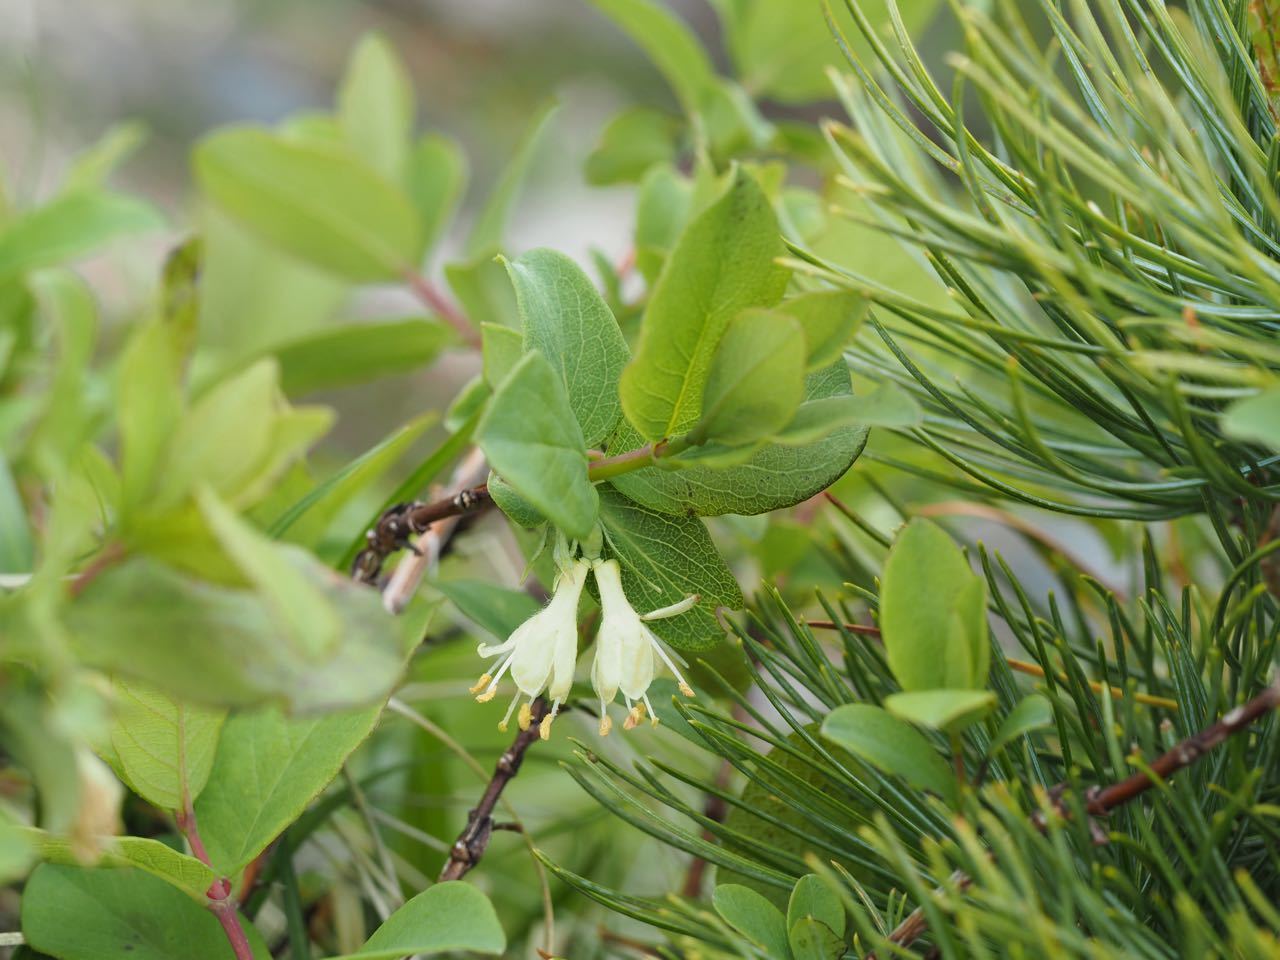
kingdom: Plantae
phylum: Tracheophyta
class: Magnoliopsida
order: Dipsacales
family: Caprifoliaceae
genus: Lonicera
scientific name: Lonicera caerulea
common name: Blue honeysuckle
